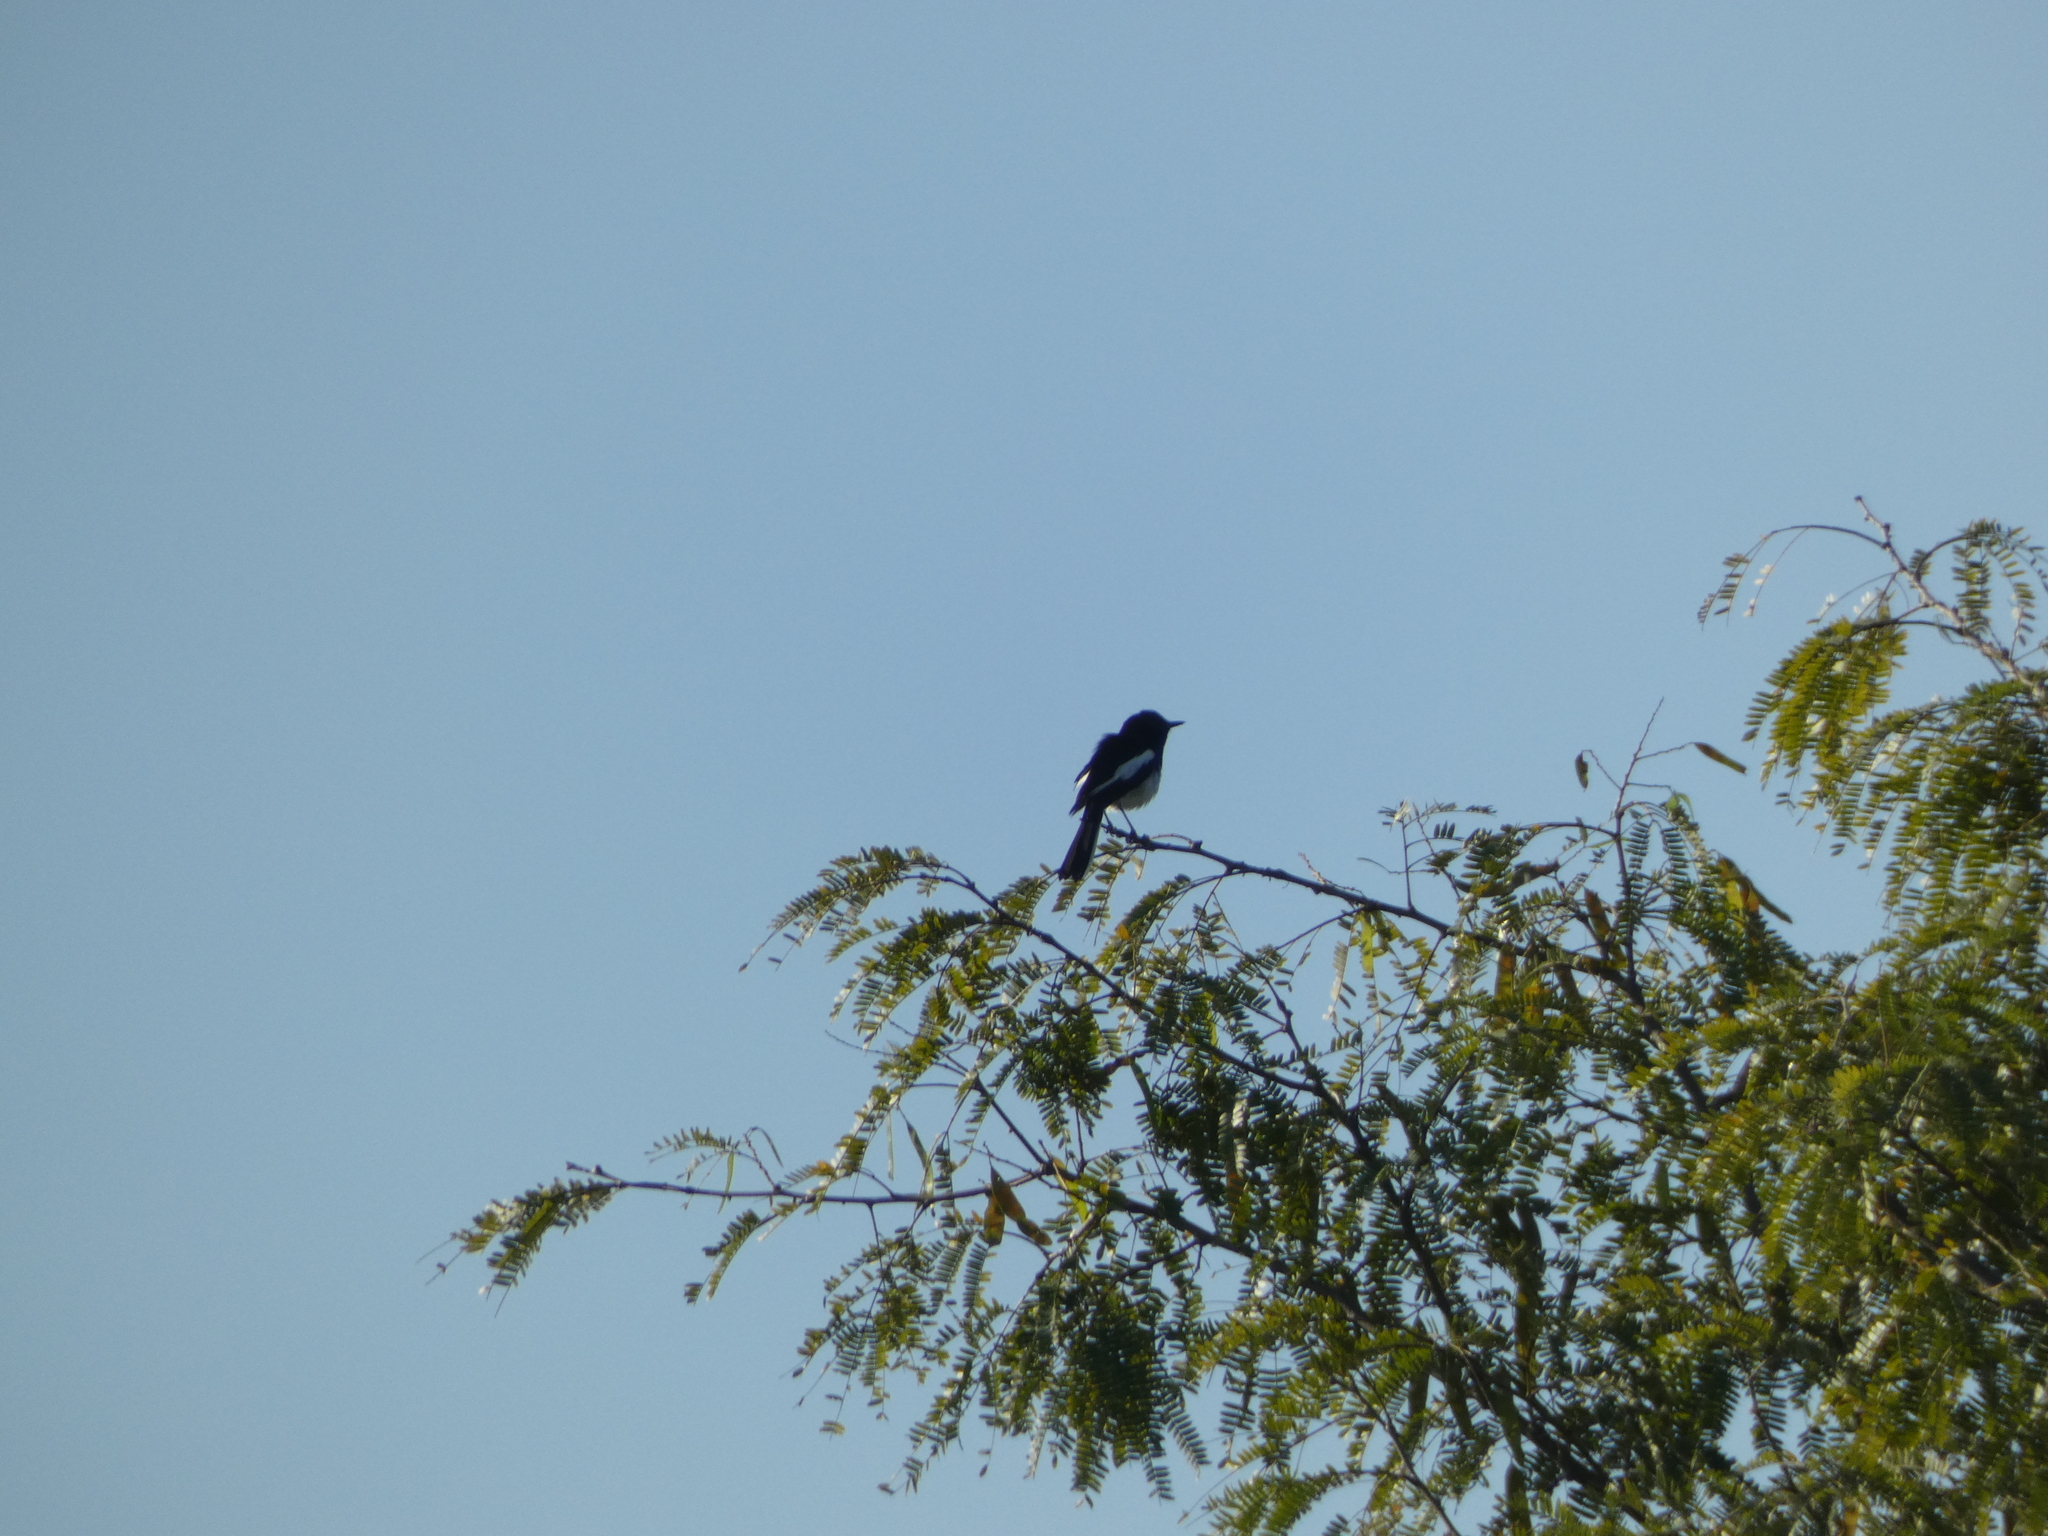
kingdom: Animalia
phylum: Chordata
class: Aves
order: Passeriformes
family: Muscicapidae
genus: Copsychus
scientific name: Copsychus saularis
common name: Oriental magpie-robin
